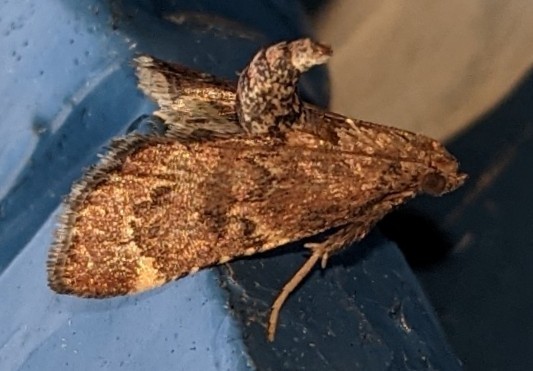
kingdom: Animalia
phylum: Arthropoda
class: Insecta
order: Lepidoptera
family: Pyralidae
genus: Hypsopygia
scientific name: Hypsopygia intermedialis
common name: Red-shawled moth
